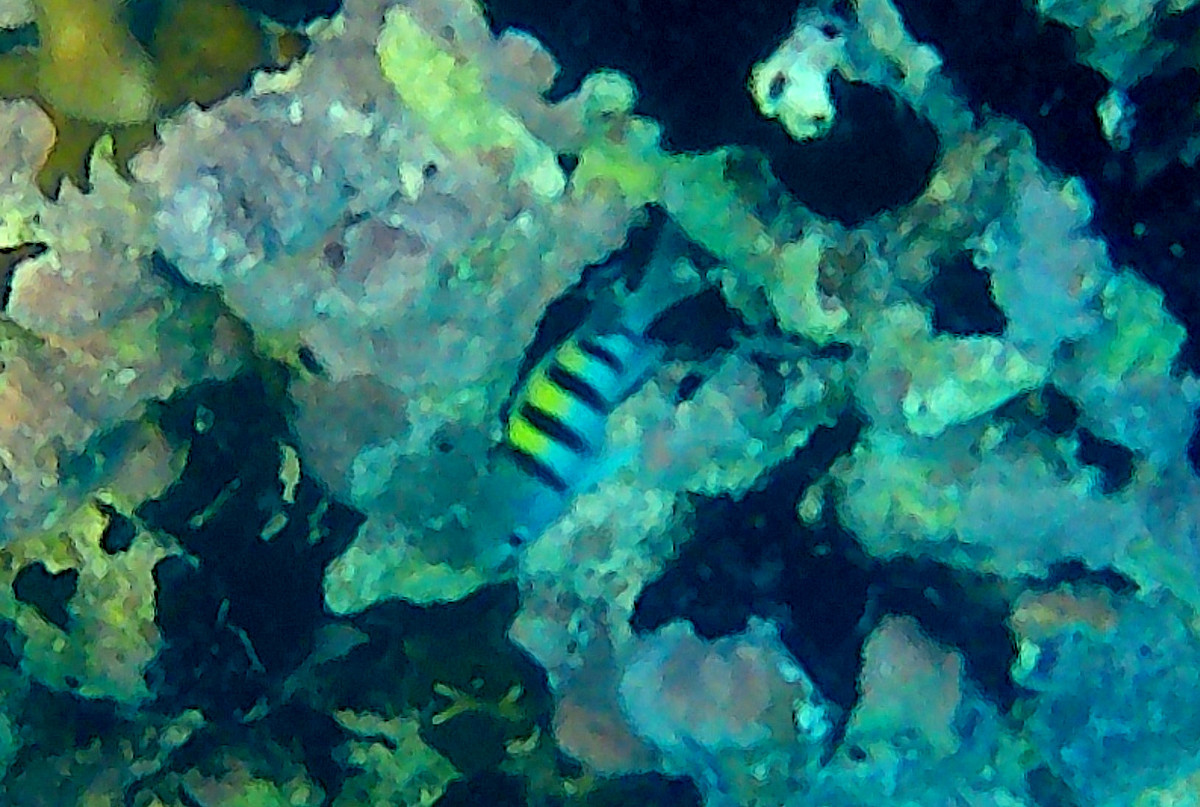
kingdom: Animalia
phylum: Chordata
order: Perciformes
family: Pomacentridae
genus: Abudefduf
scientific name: Abudefduf saxatilis
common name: Sergeant major
